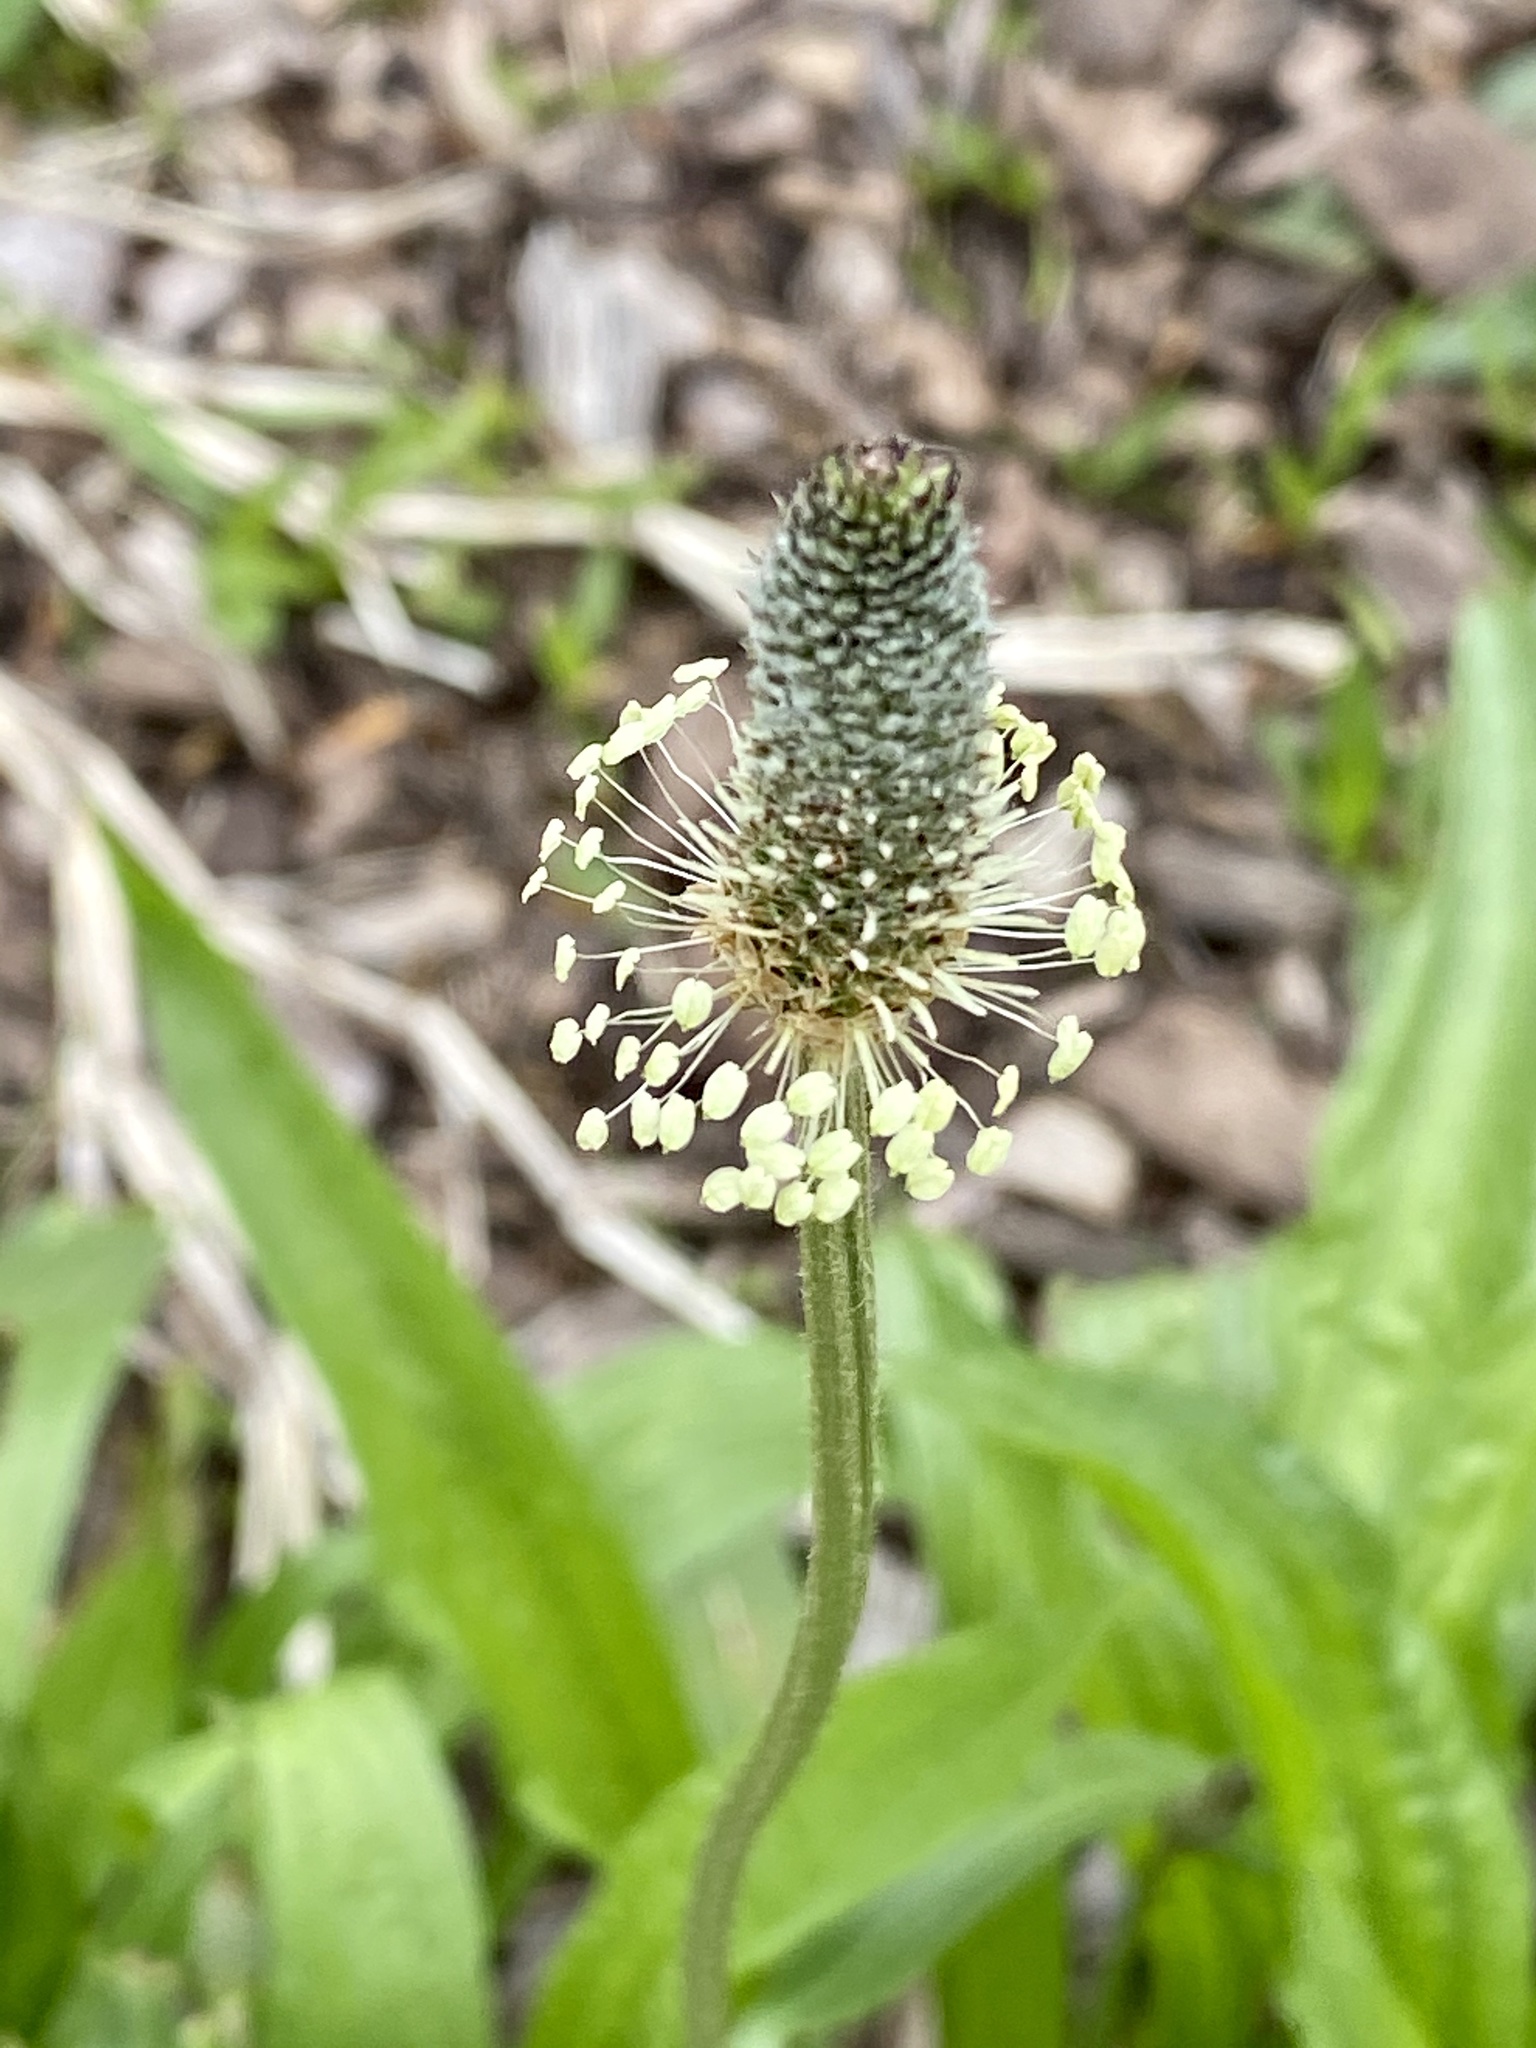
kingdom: Plantae
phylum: Tracheophyta
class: Magnoliopsida
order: Lamiales
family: Plantaginaceae
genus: Plantago
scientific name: Plantago lanceolata
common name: Ribwort plantain
